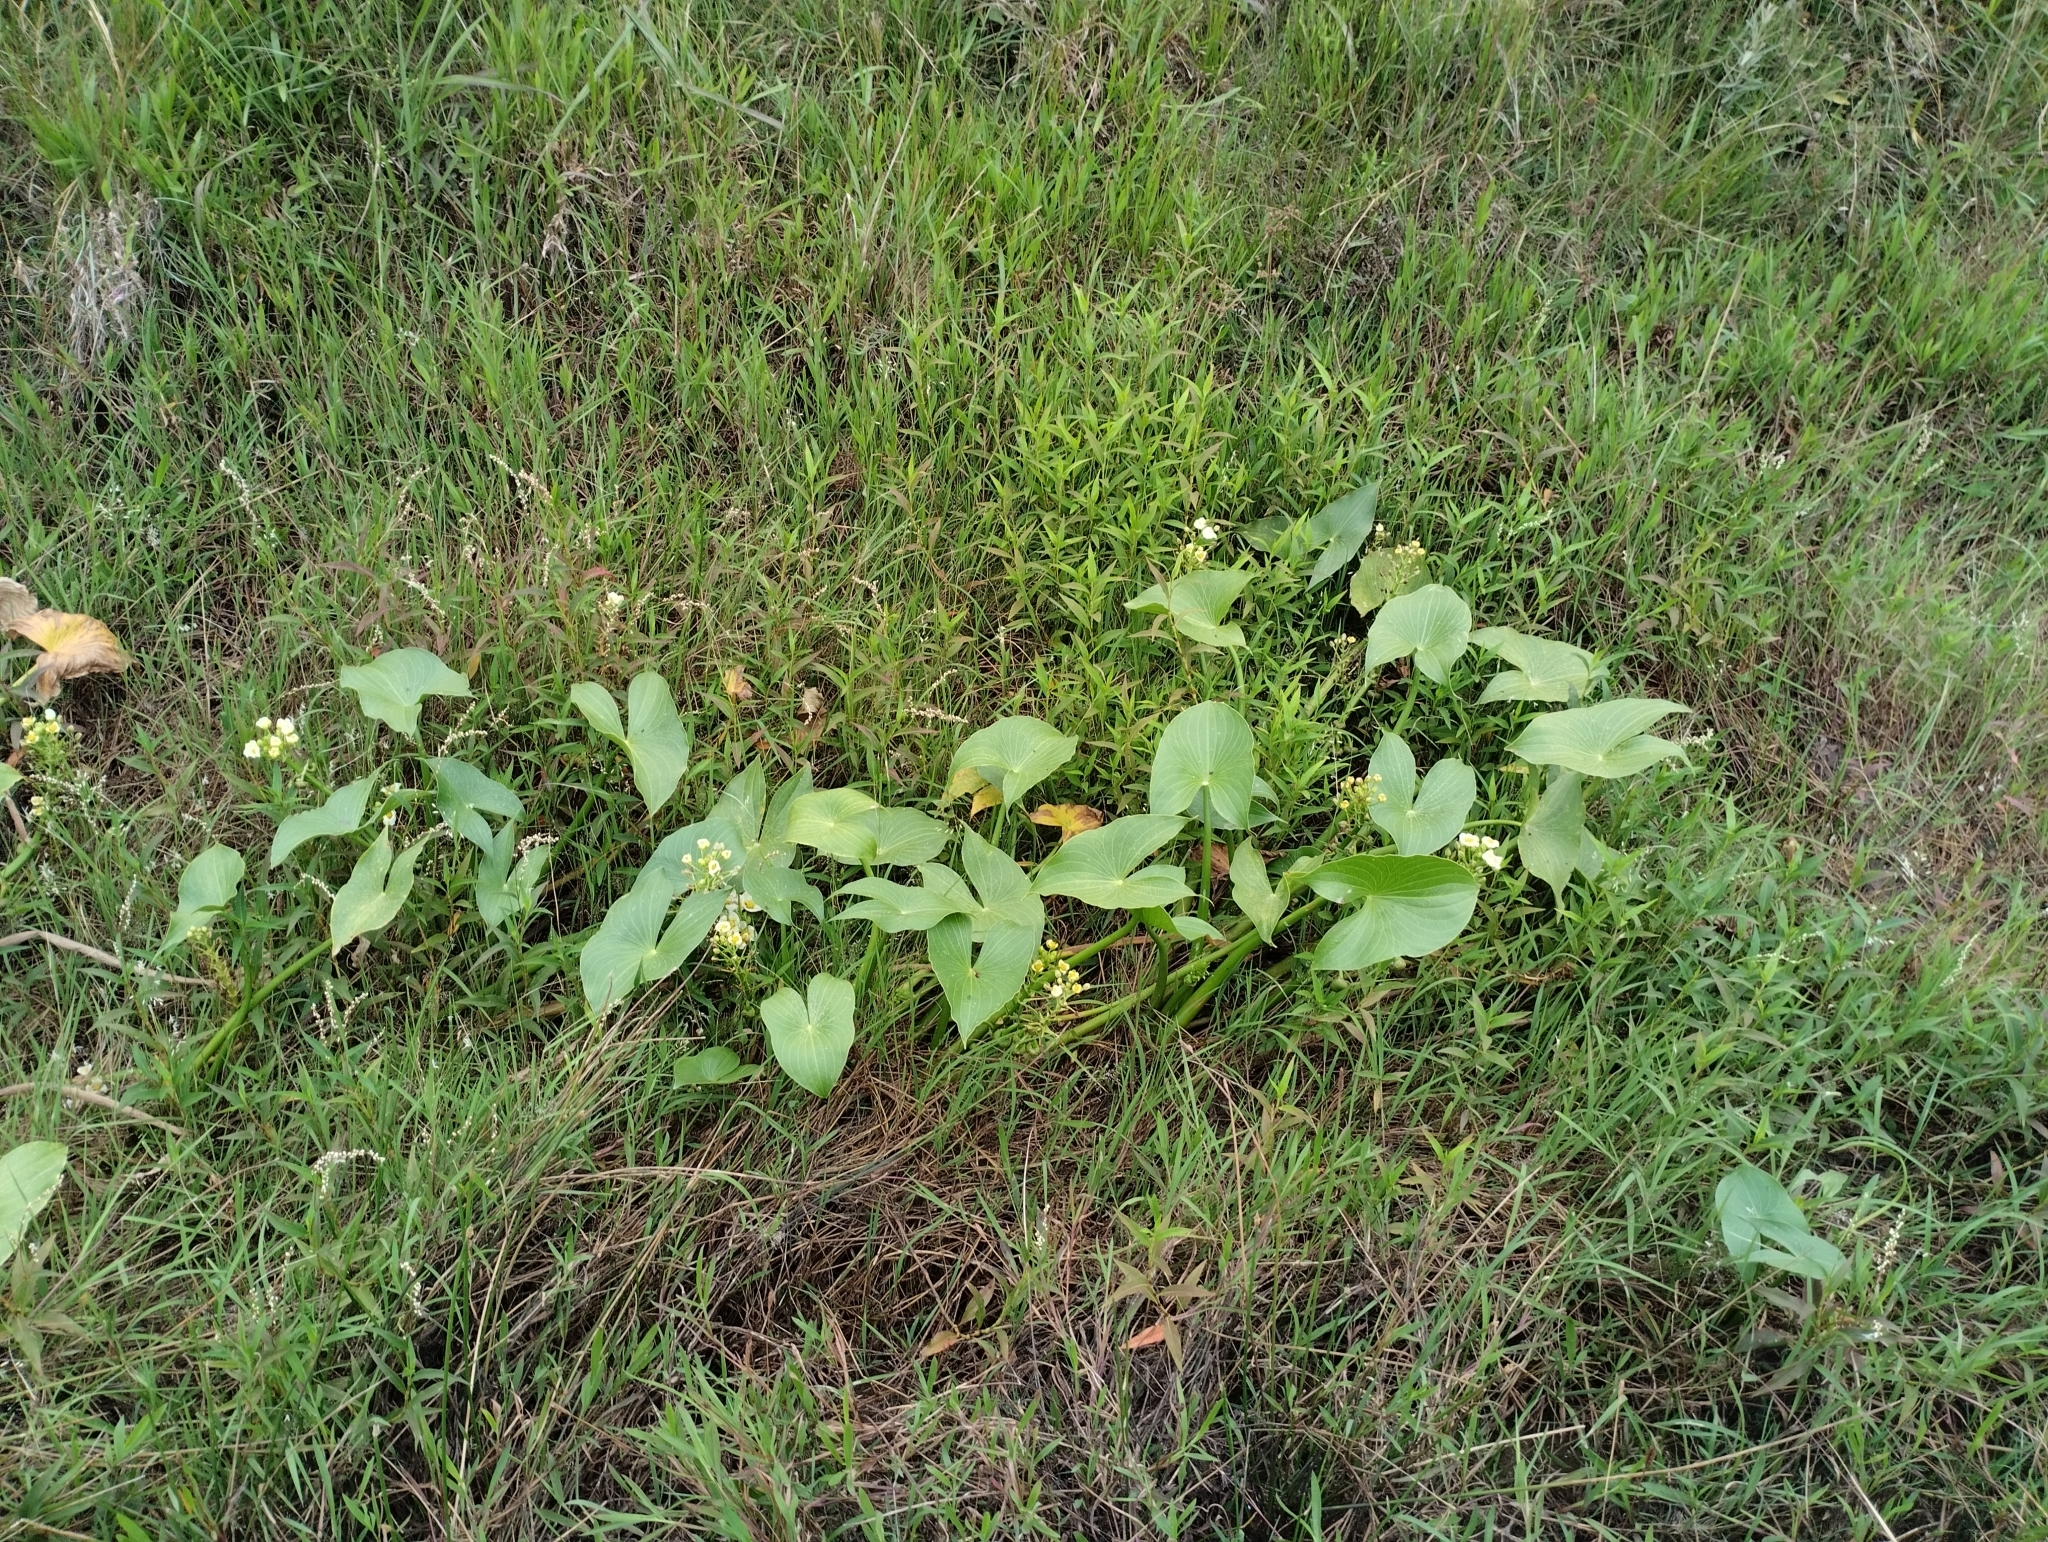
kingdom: Plantae
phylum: Tracheophyta
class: Liliopsida
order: Alismatales
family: Alismataceae
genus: Sagittaria
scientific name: Sagittaria montevidensis
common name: Giant arrowhead
